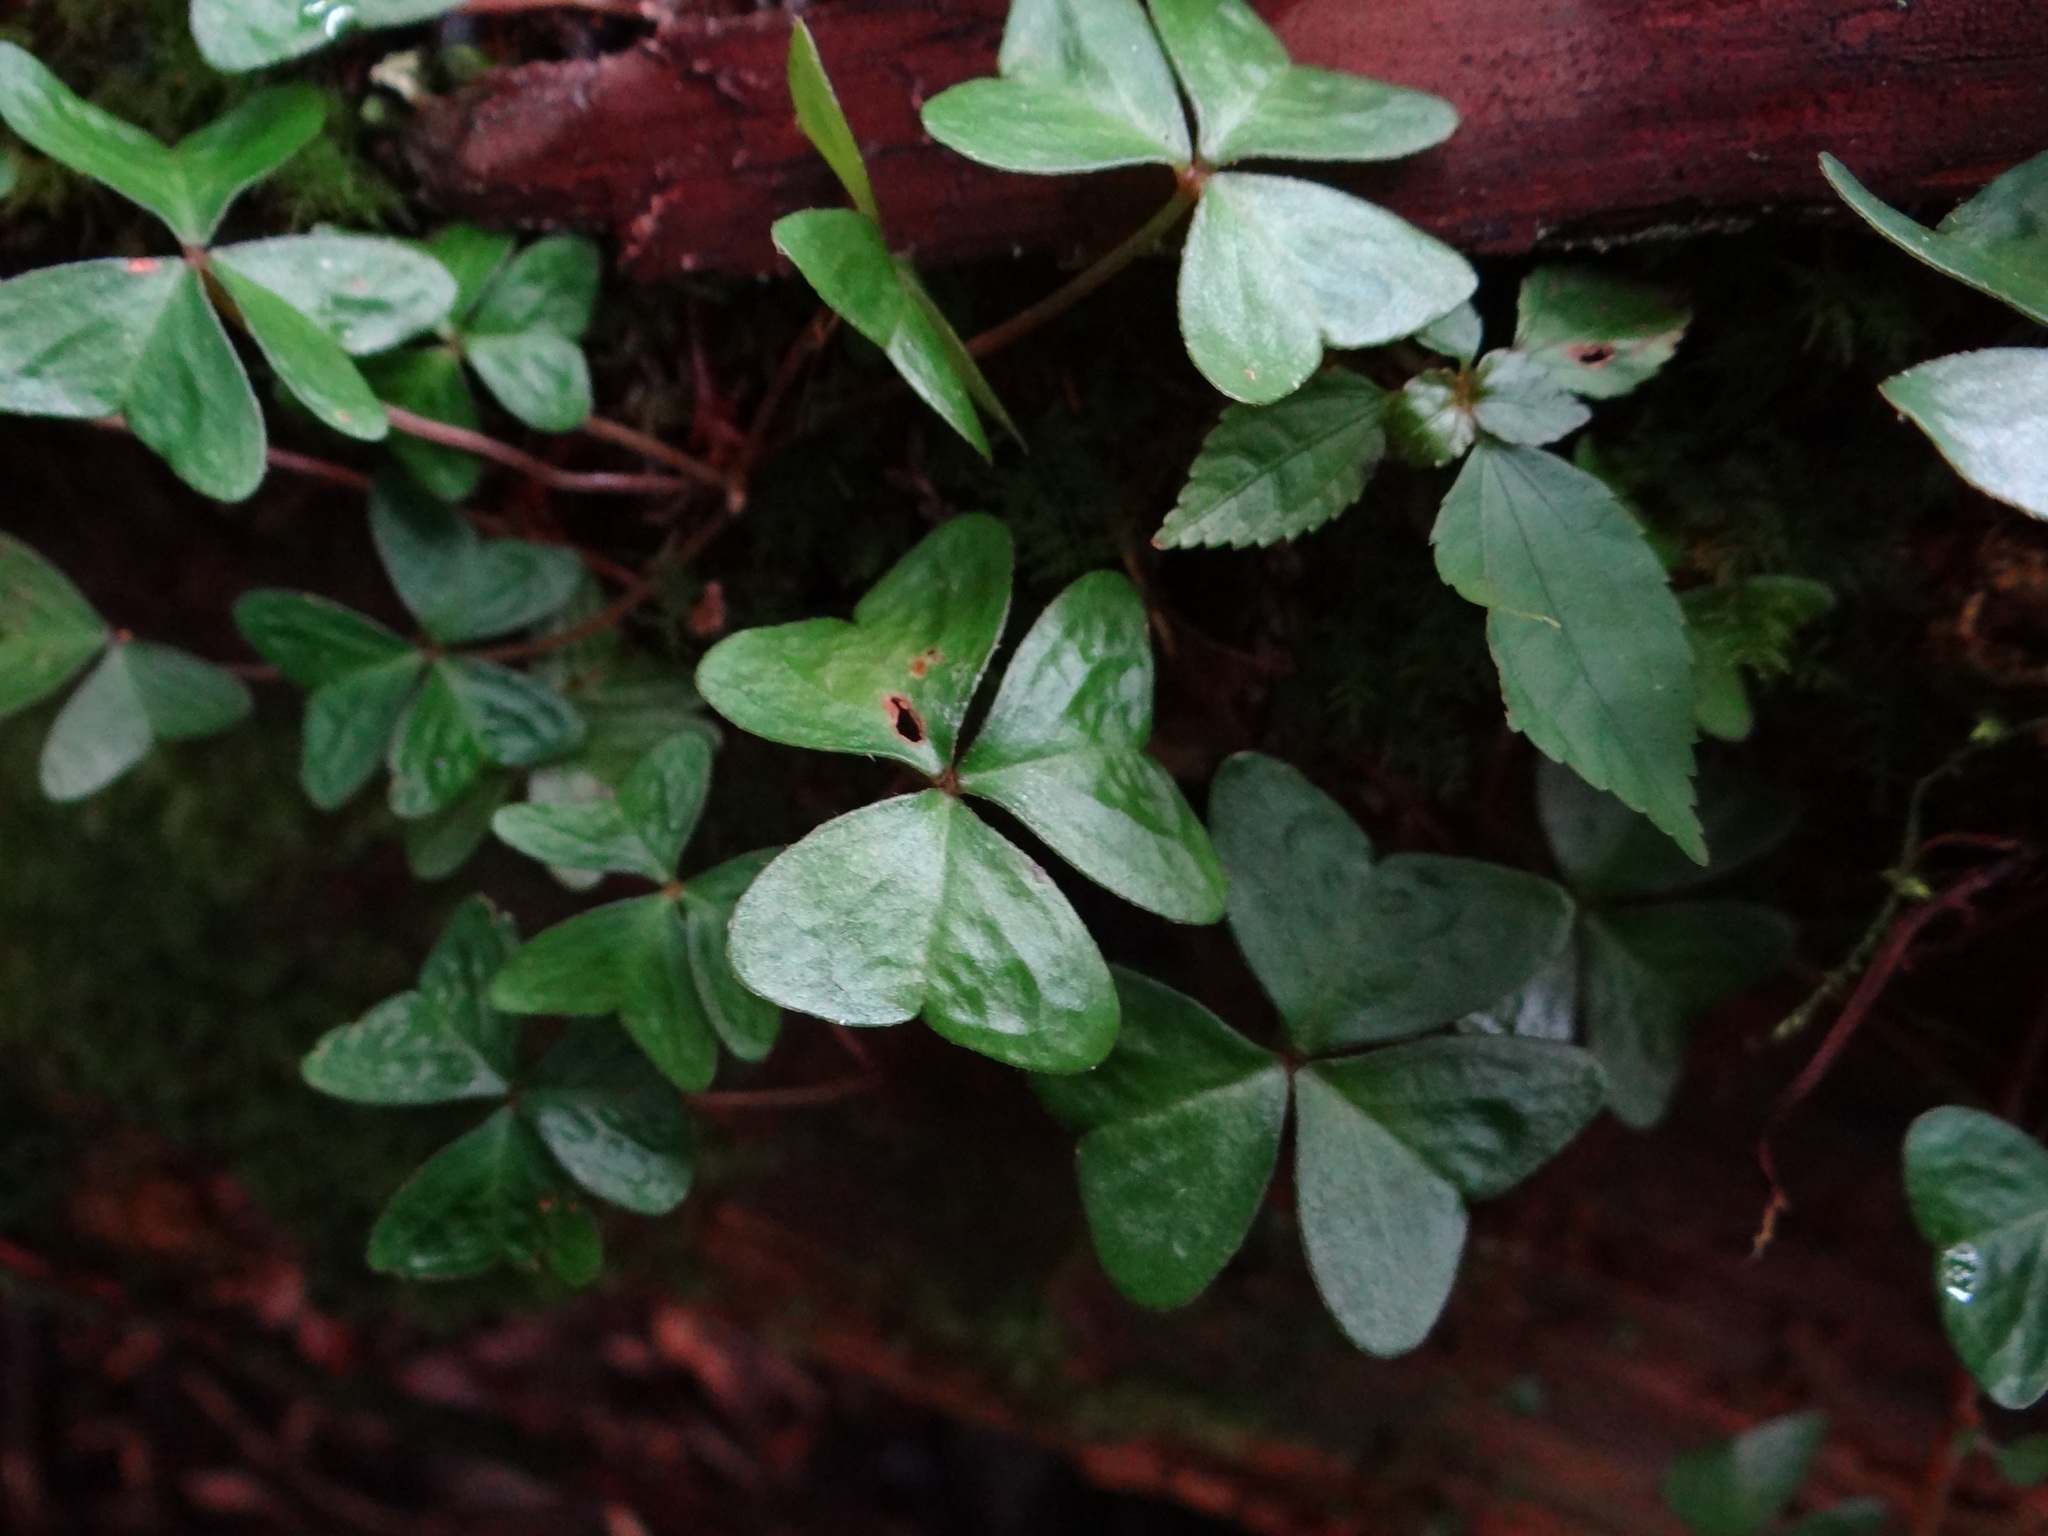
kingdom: Plantae
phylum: Tracheophyta
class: Magnoliopsida
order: Oxalidales
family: Oxalidaceae
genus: Oxalis
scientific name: Oxalis griffithii
